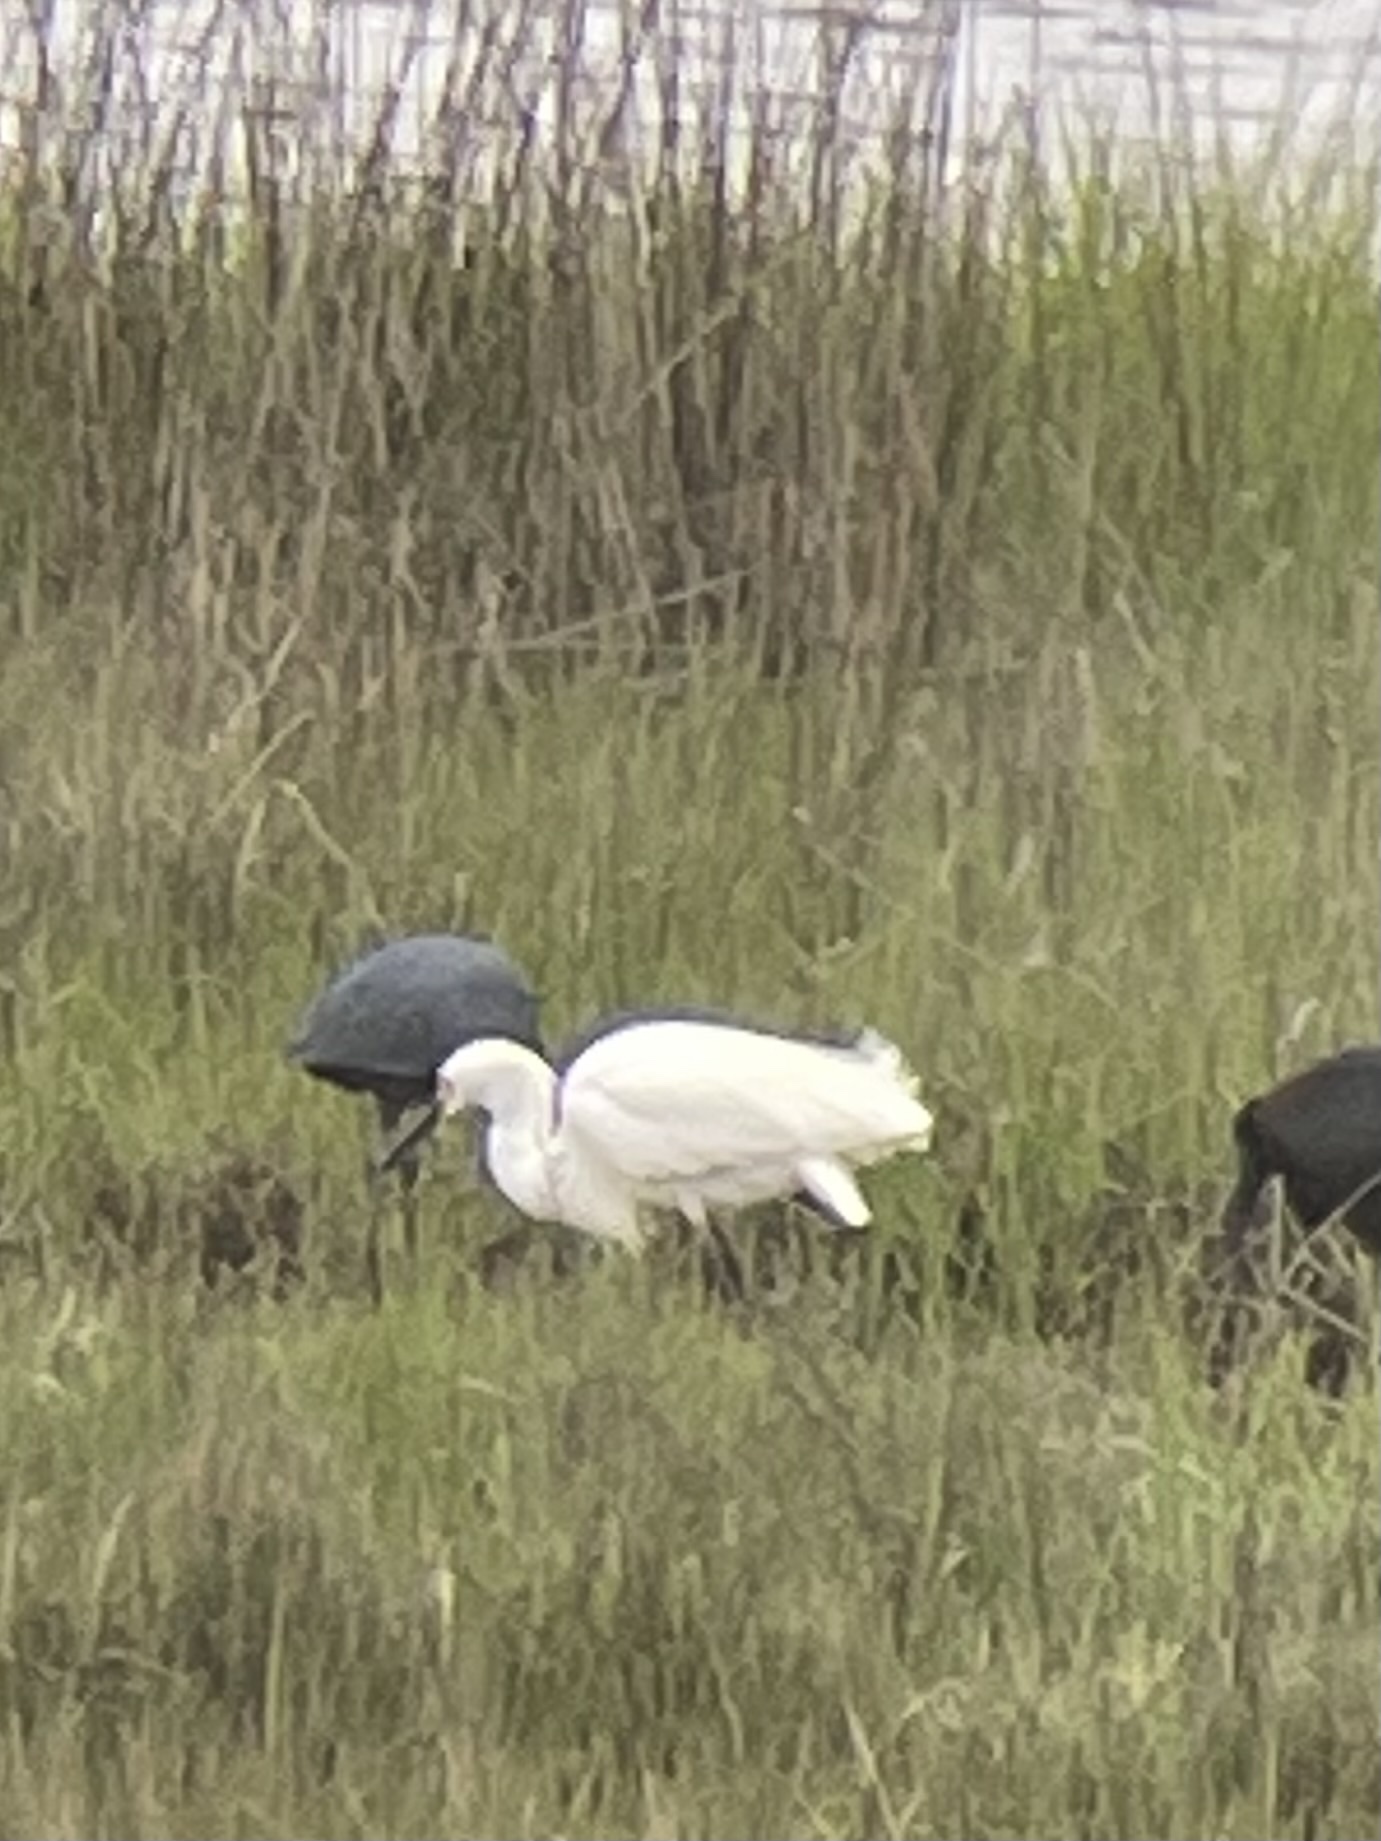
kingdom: Animalia
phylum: Chordata
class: Aves
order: Pelecaniformes
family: Ardeidae
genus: Egretta
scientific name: Egretta thula
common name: Snowy egret
